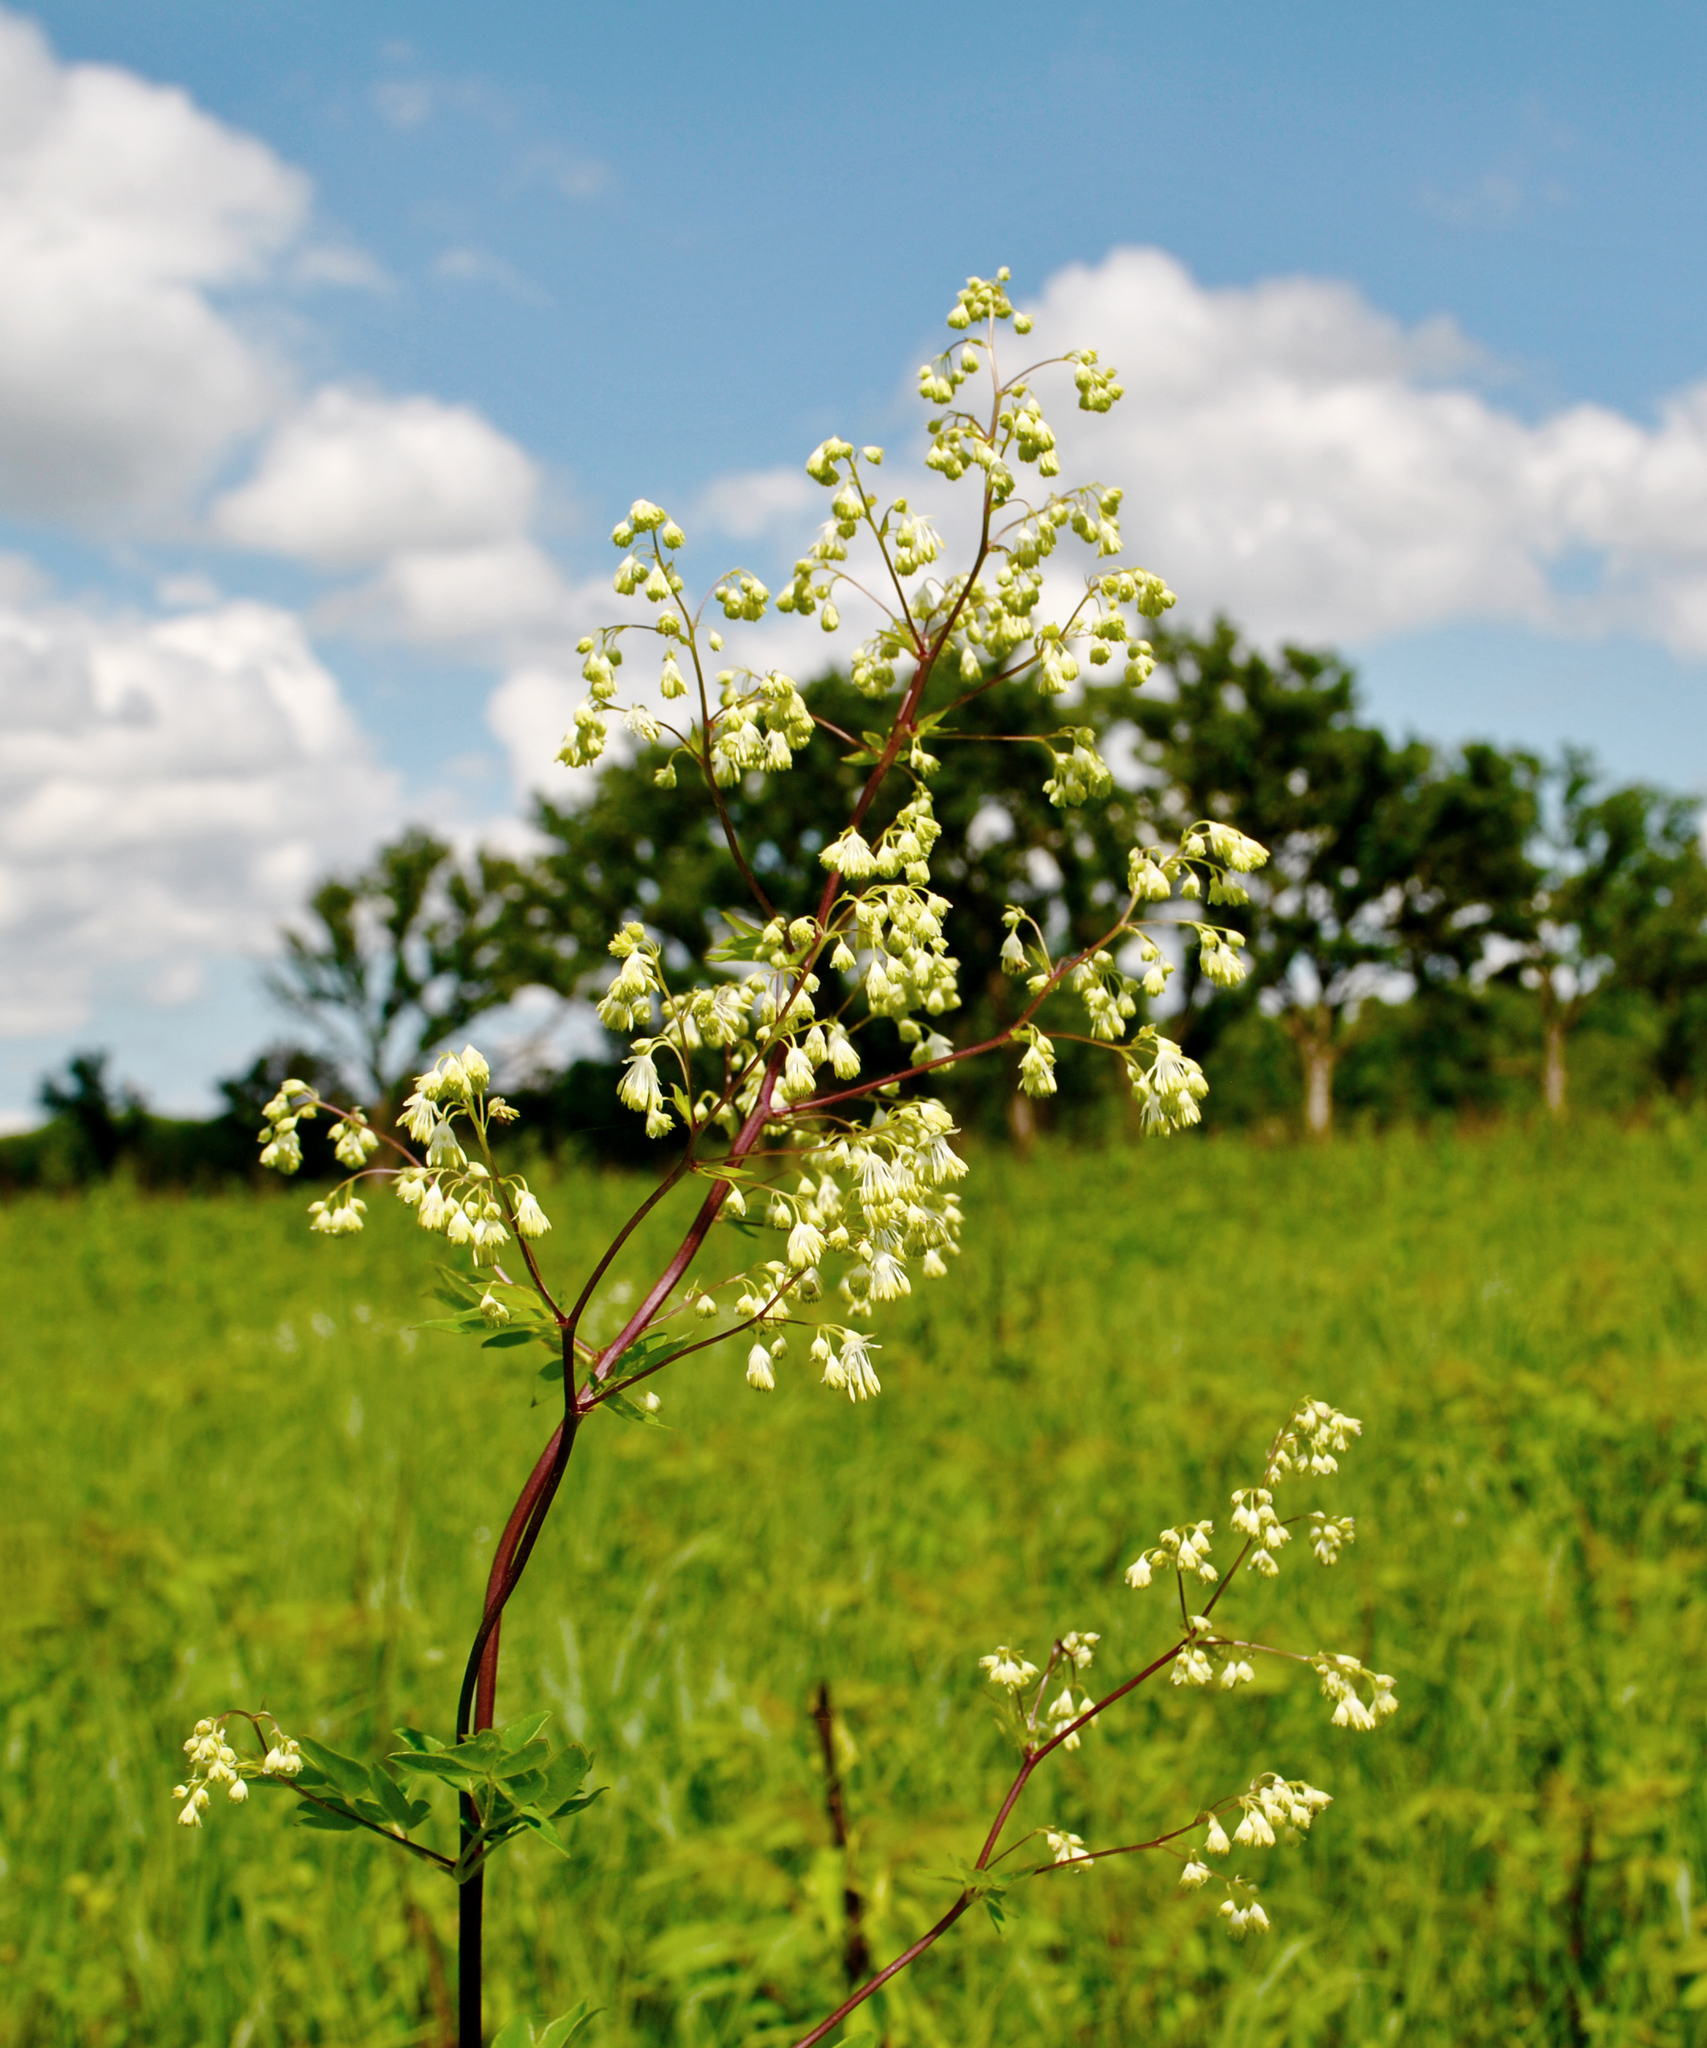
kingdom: Plantae
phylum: Tracheophyta
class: Magnoliopsida
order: Ranunculales
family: Ranunculaceae
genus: Thalictrum
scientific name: Thalictrum dasycarpum
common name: Purple meadow-rue
